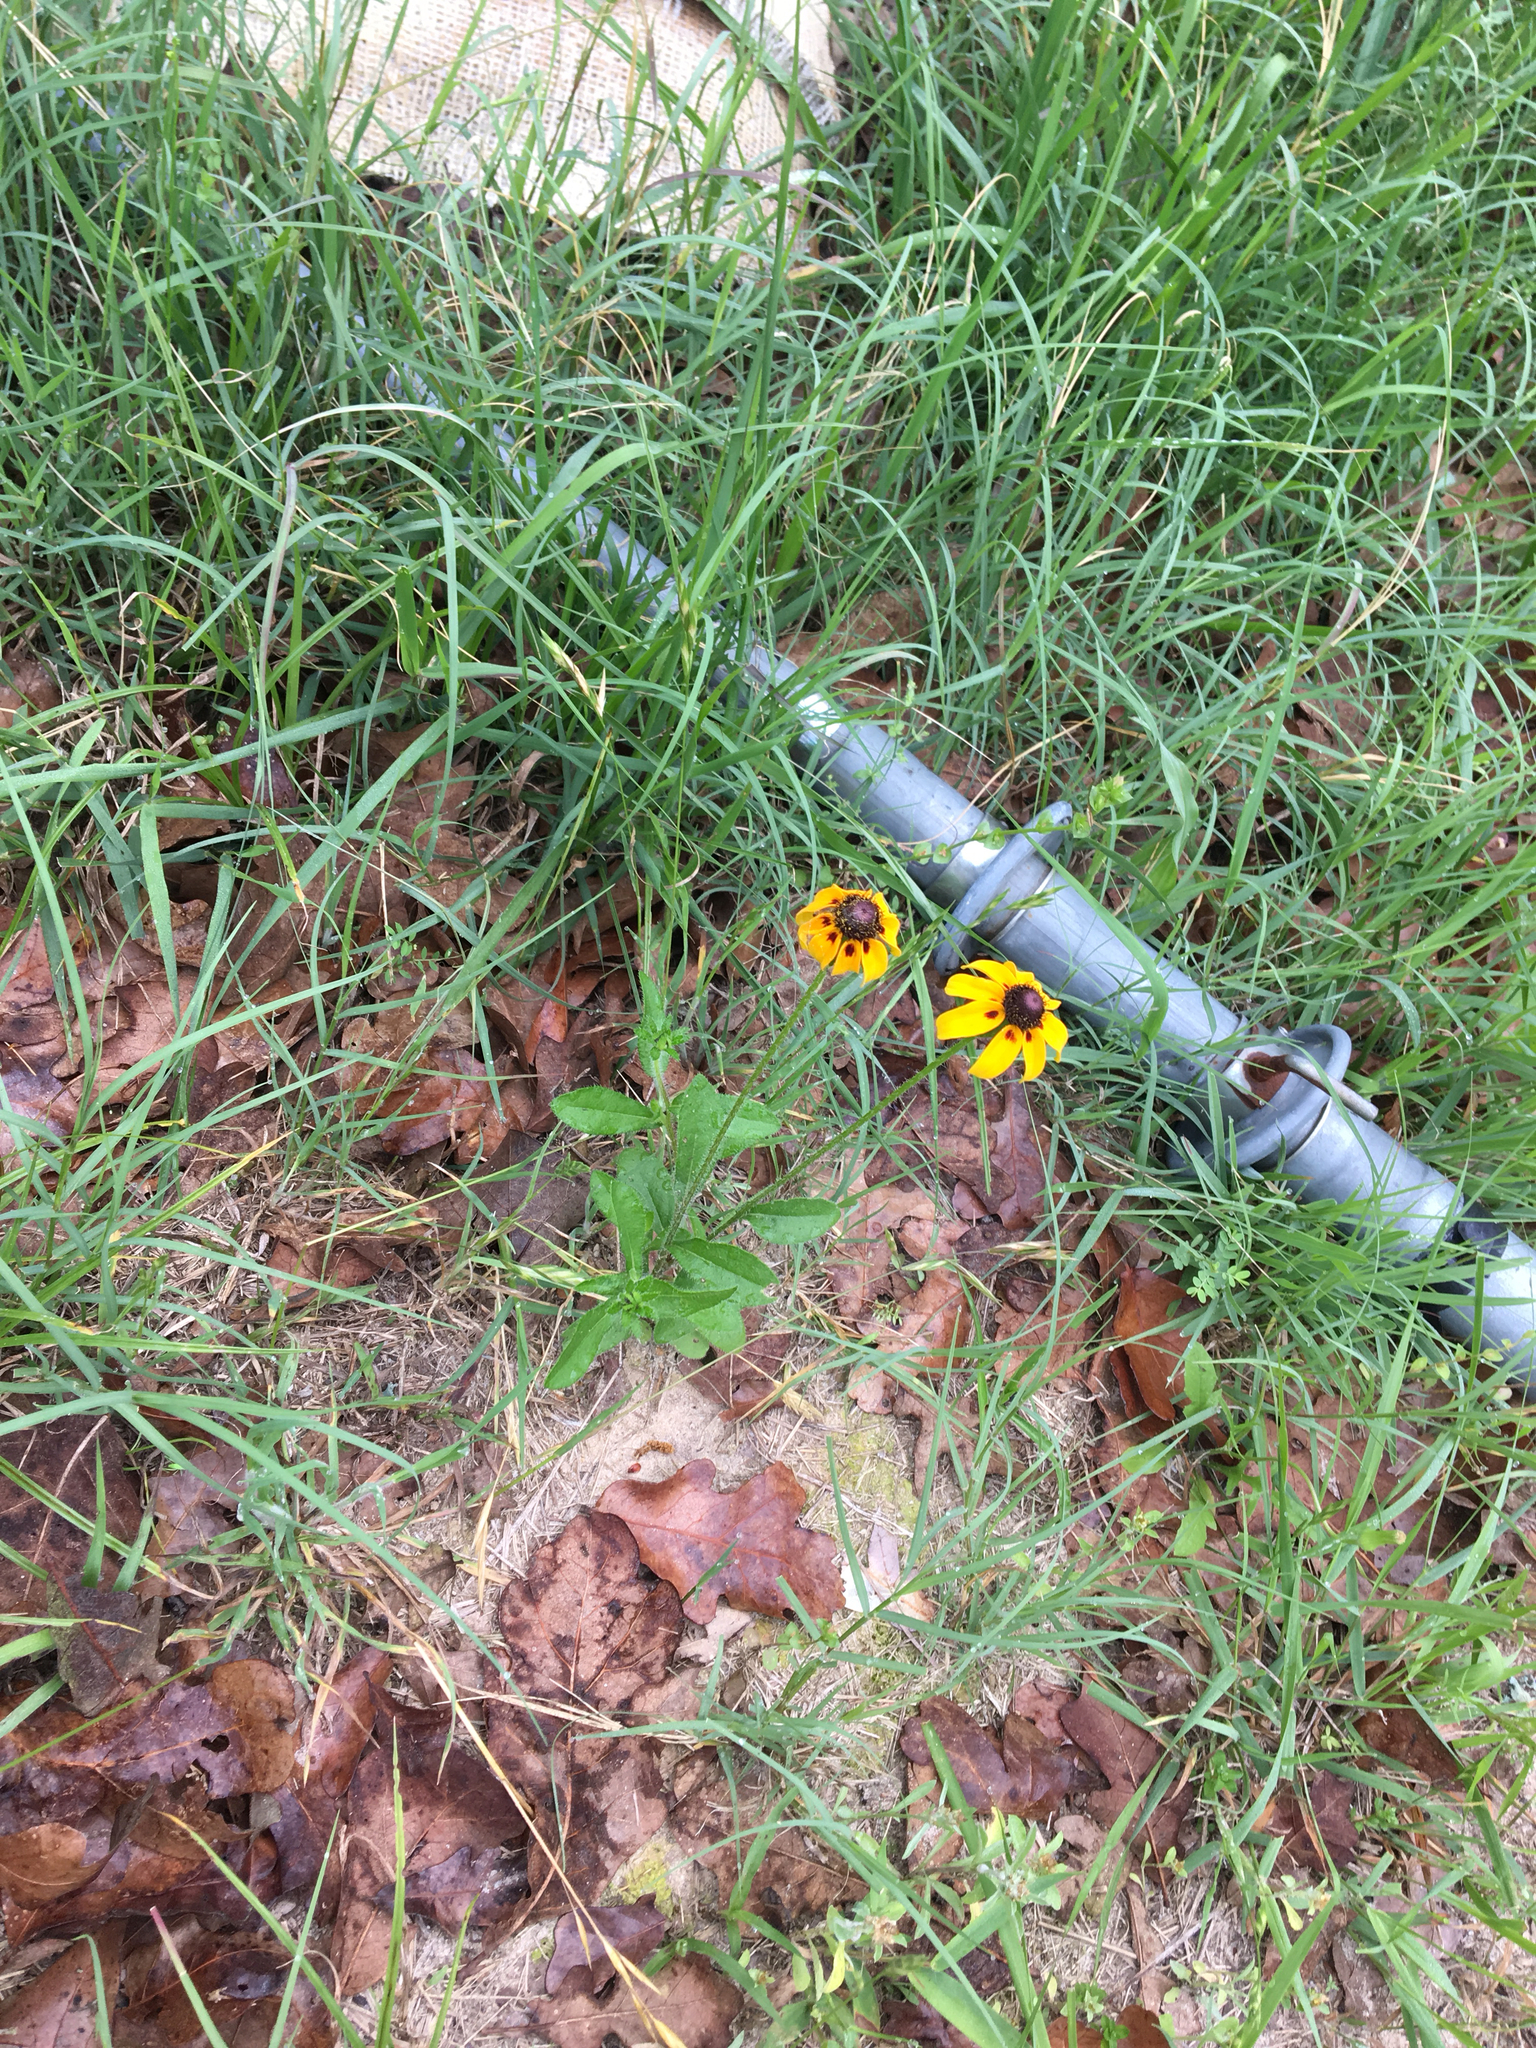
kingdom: Plantae
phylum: Tracheophyta
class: Magnoliopsida
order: Asterales
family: Asteraceae
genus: Rudbeckia
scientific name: Rudbeckia hirta
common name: Black-eyed-susan
